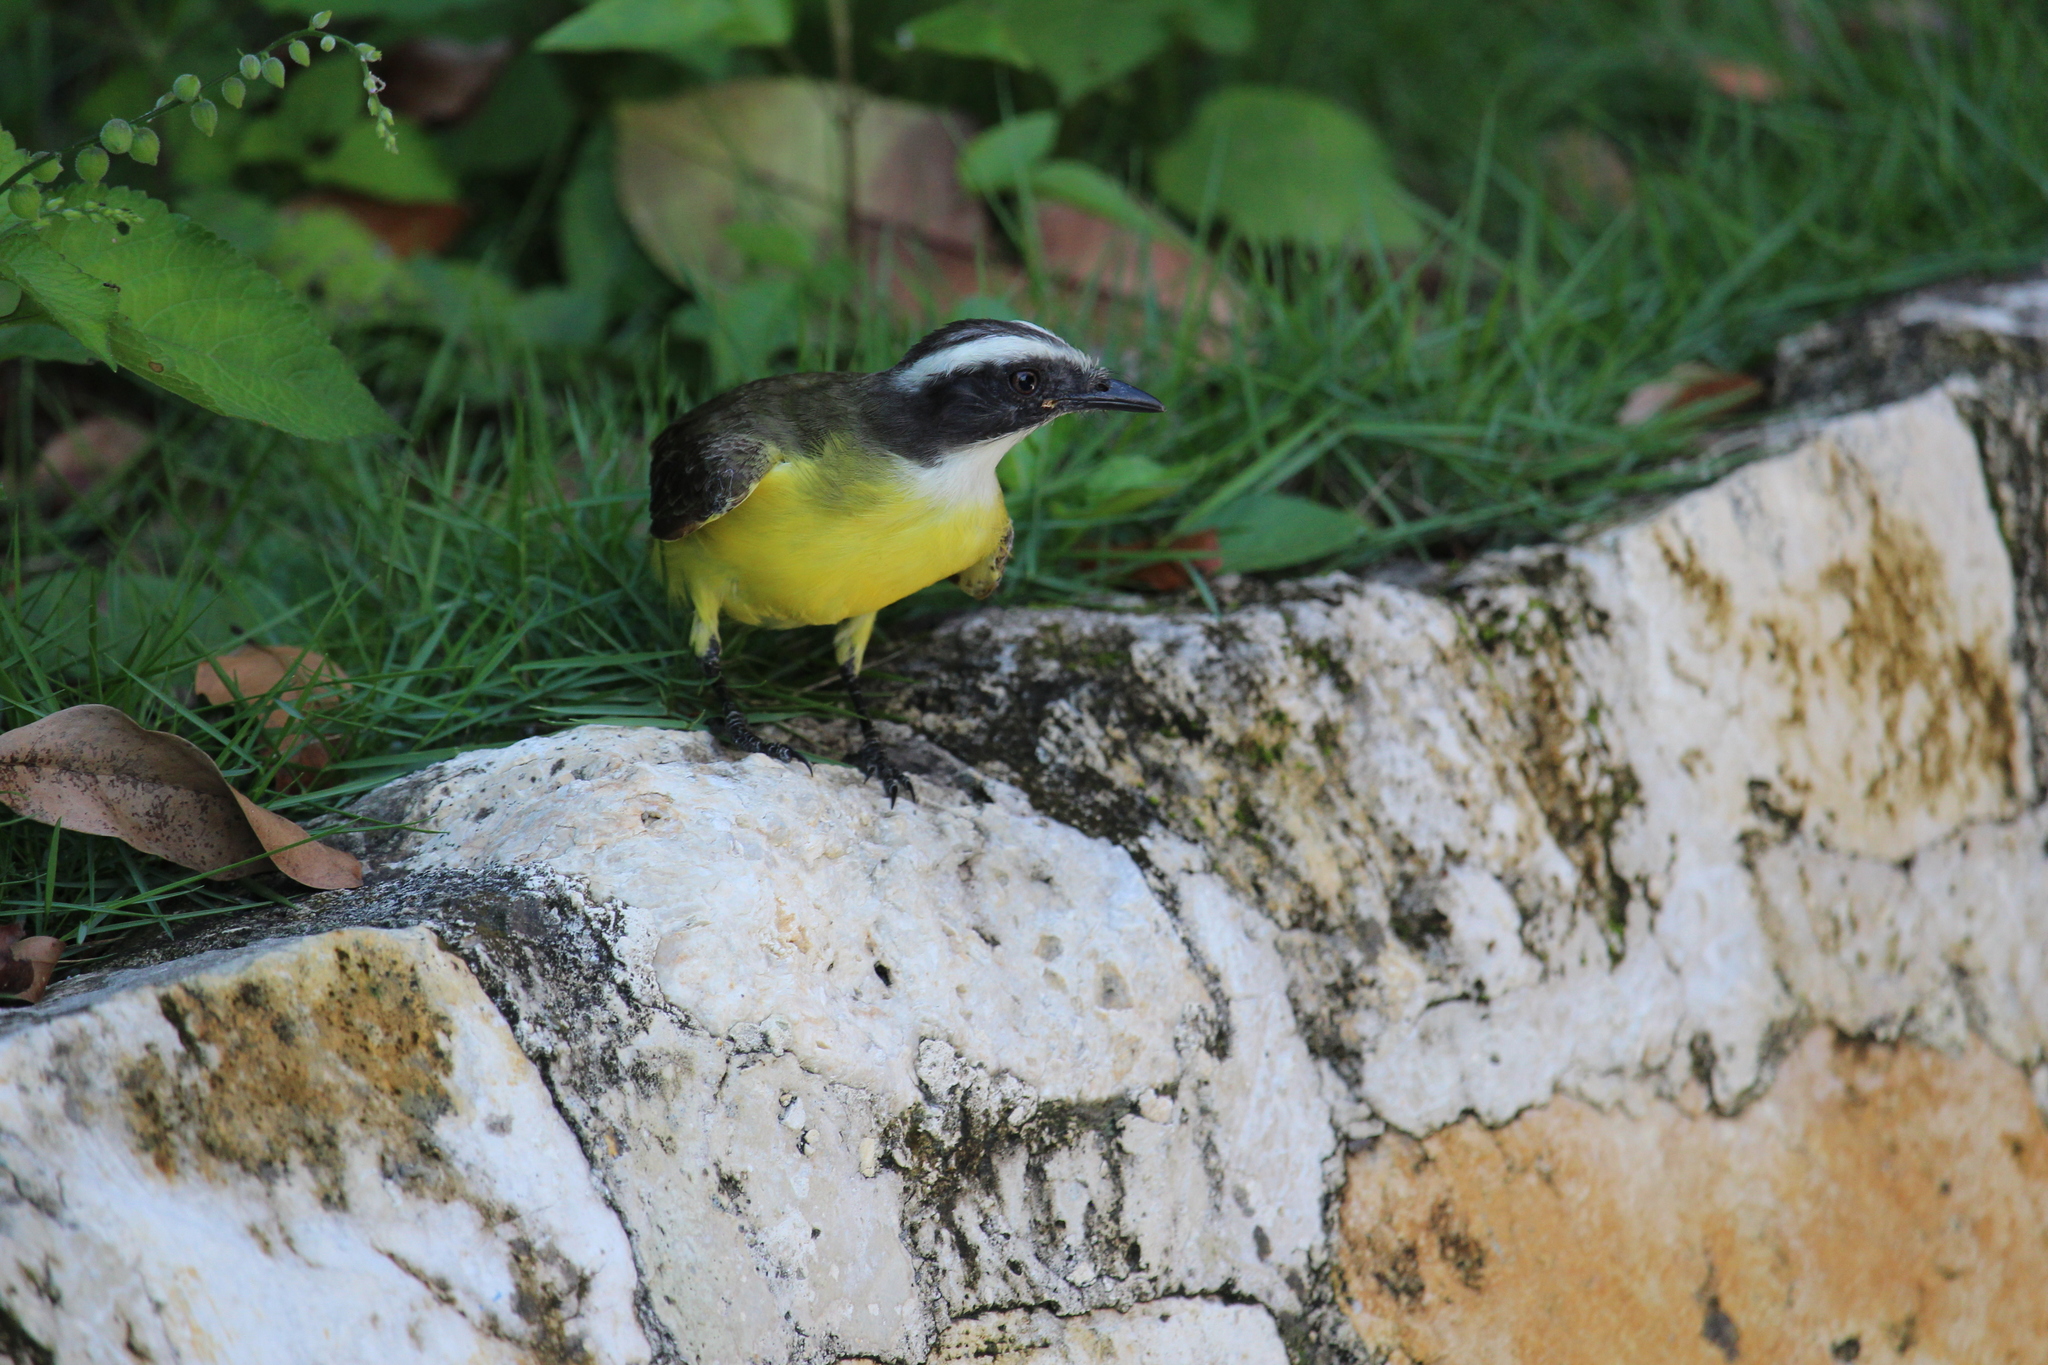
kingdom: Animalia
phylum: Chordata
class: Aves
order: Passeriformes
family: Tyrannidae
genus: Myiozetetes
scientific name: Myiozetetes similis
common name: Social flycatcher
